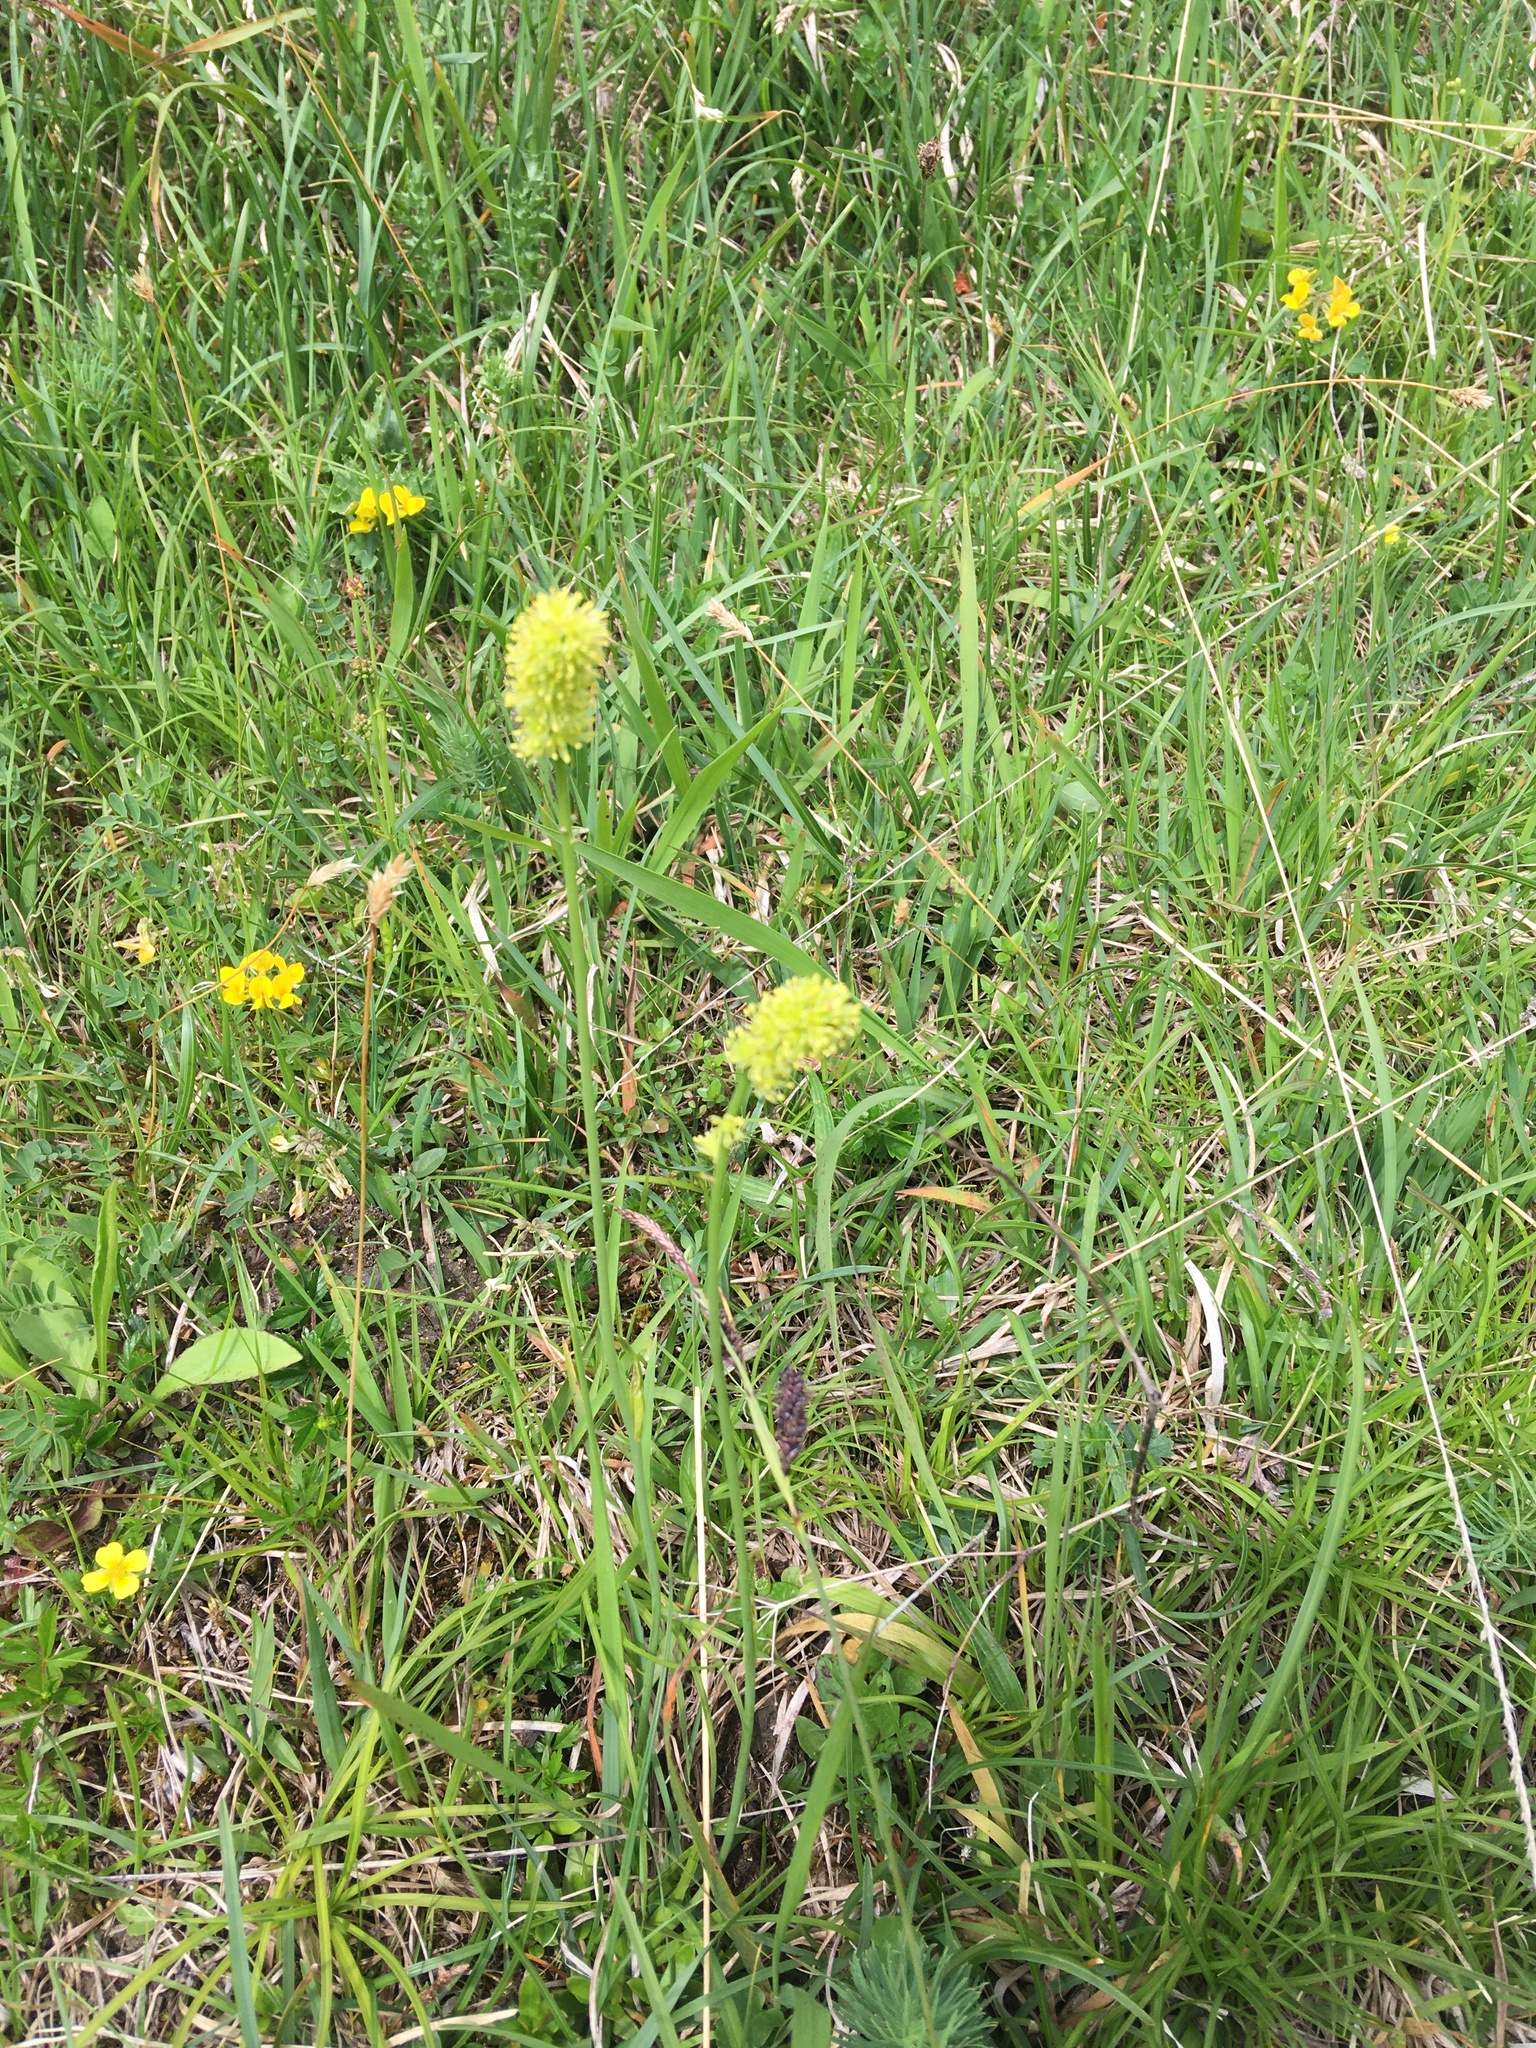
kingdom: Plantae
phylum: Tracheophyta
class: Liliopsida
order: Alismatales
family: Tofieldiaceae
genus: Tofieldia
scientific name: Tofieldia calyculata
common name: German-asphodel
